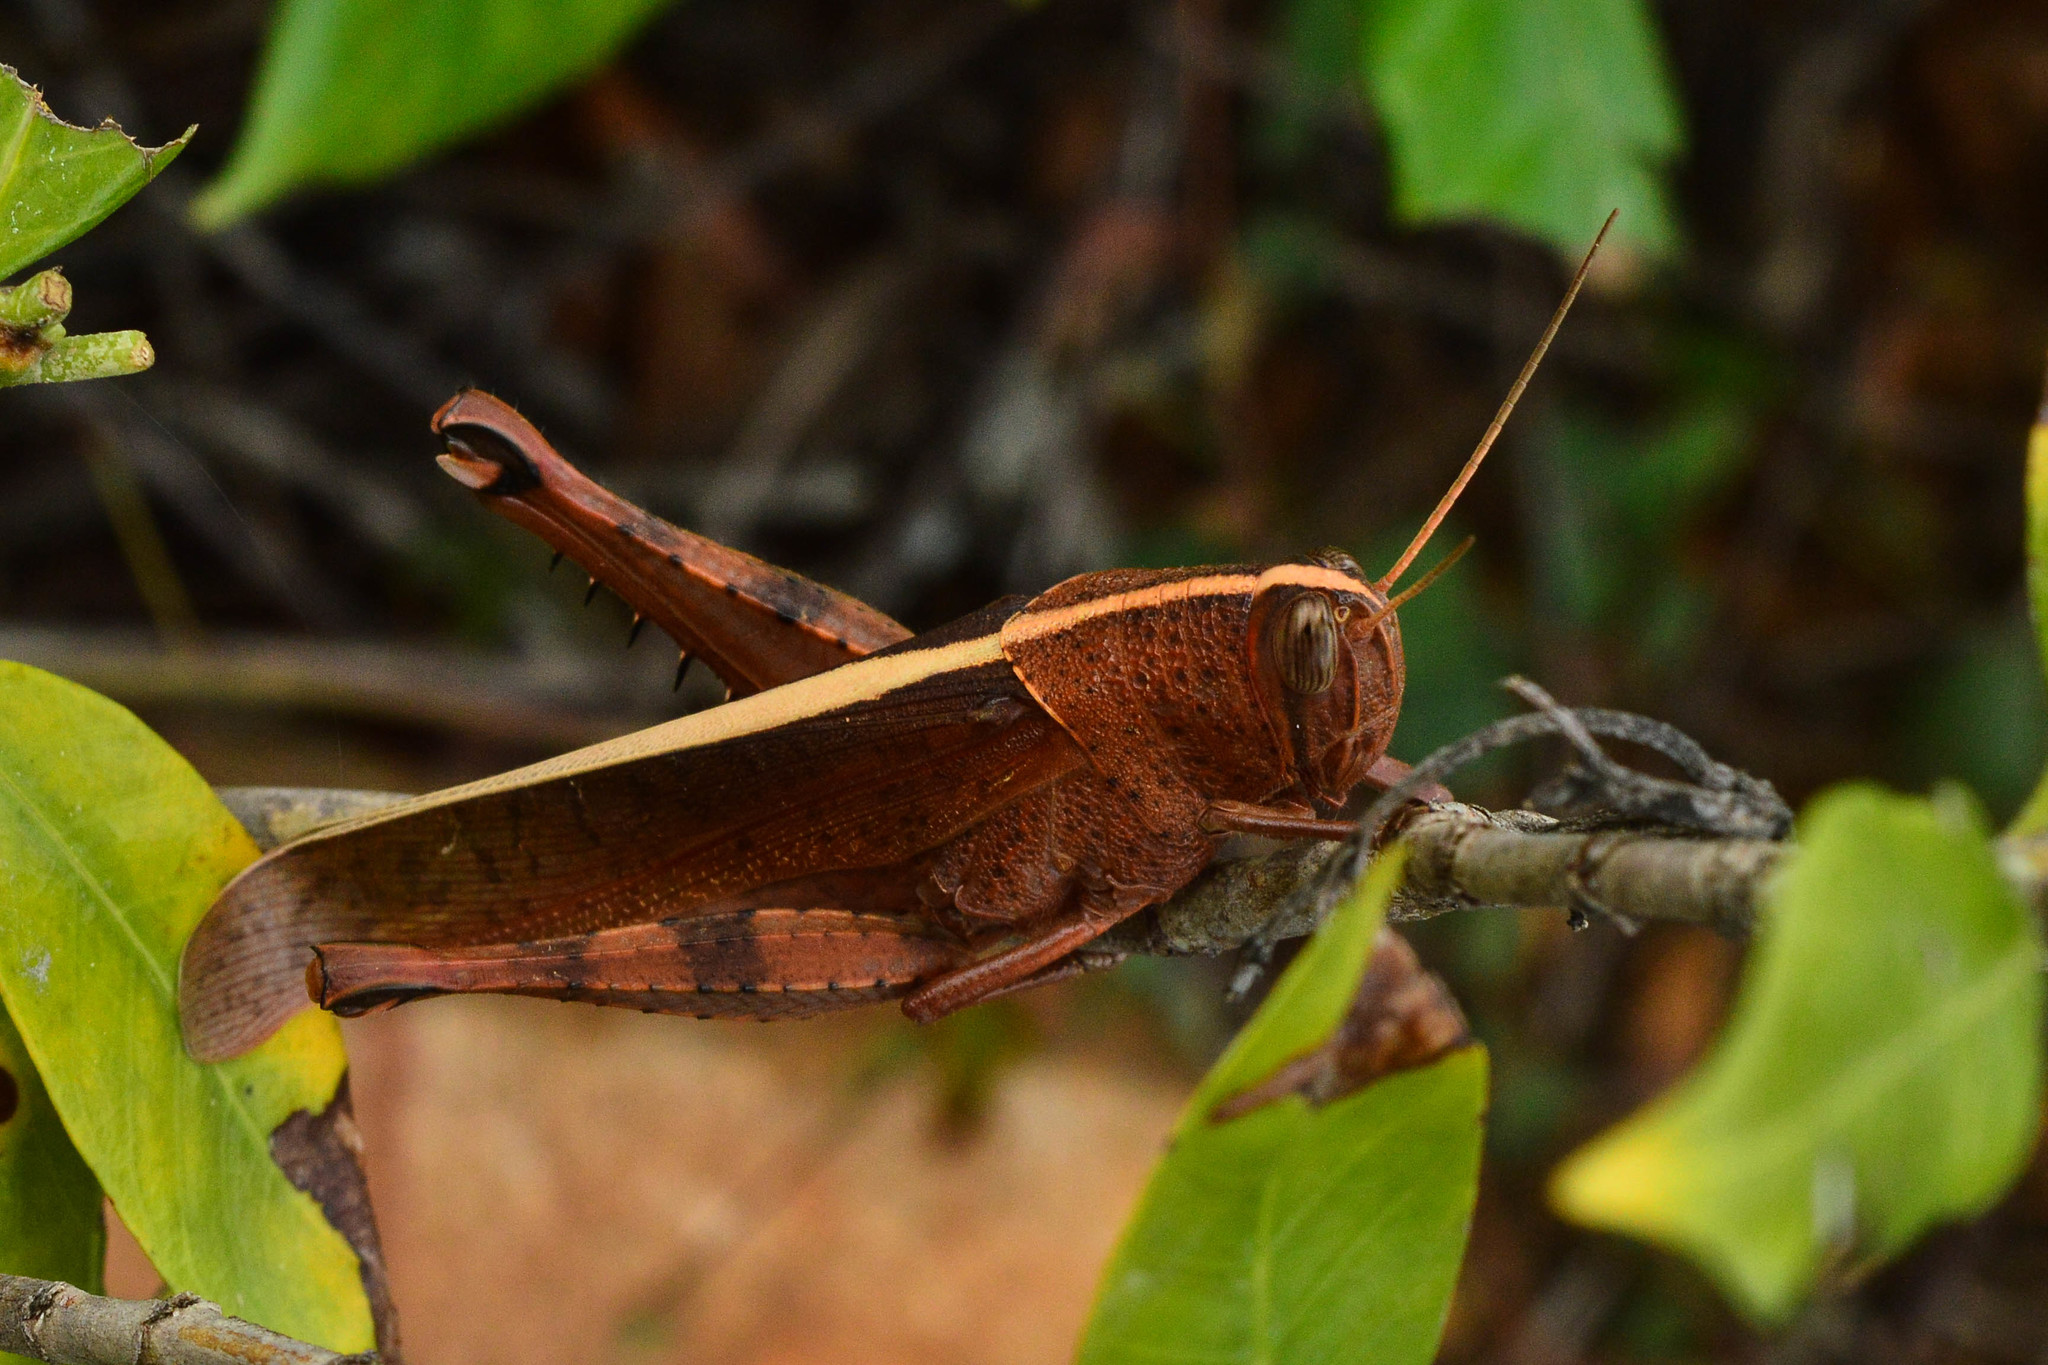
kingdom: Animalia
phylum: Arthropoda
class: Insecta
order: Orthoptera
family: Acrididae
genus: Pachyacris
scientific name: Pachyacris violascens
